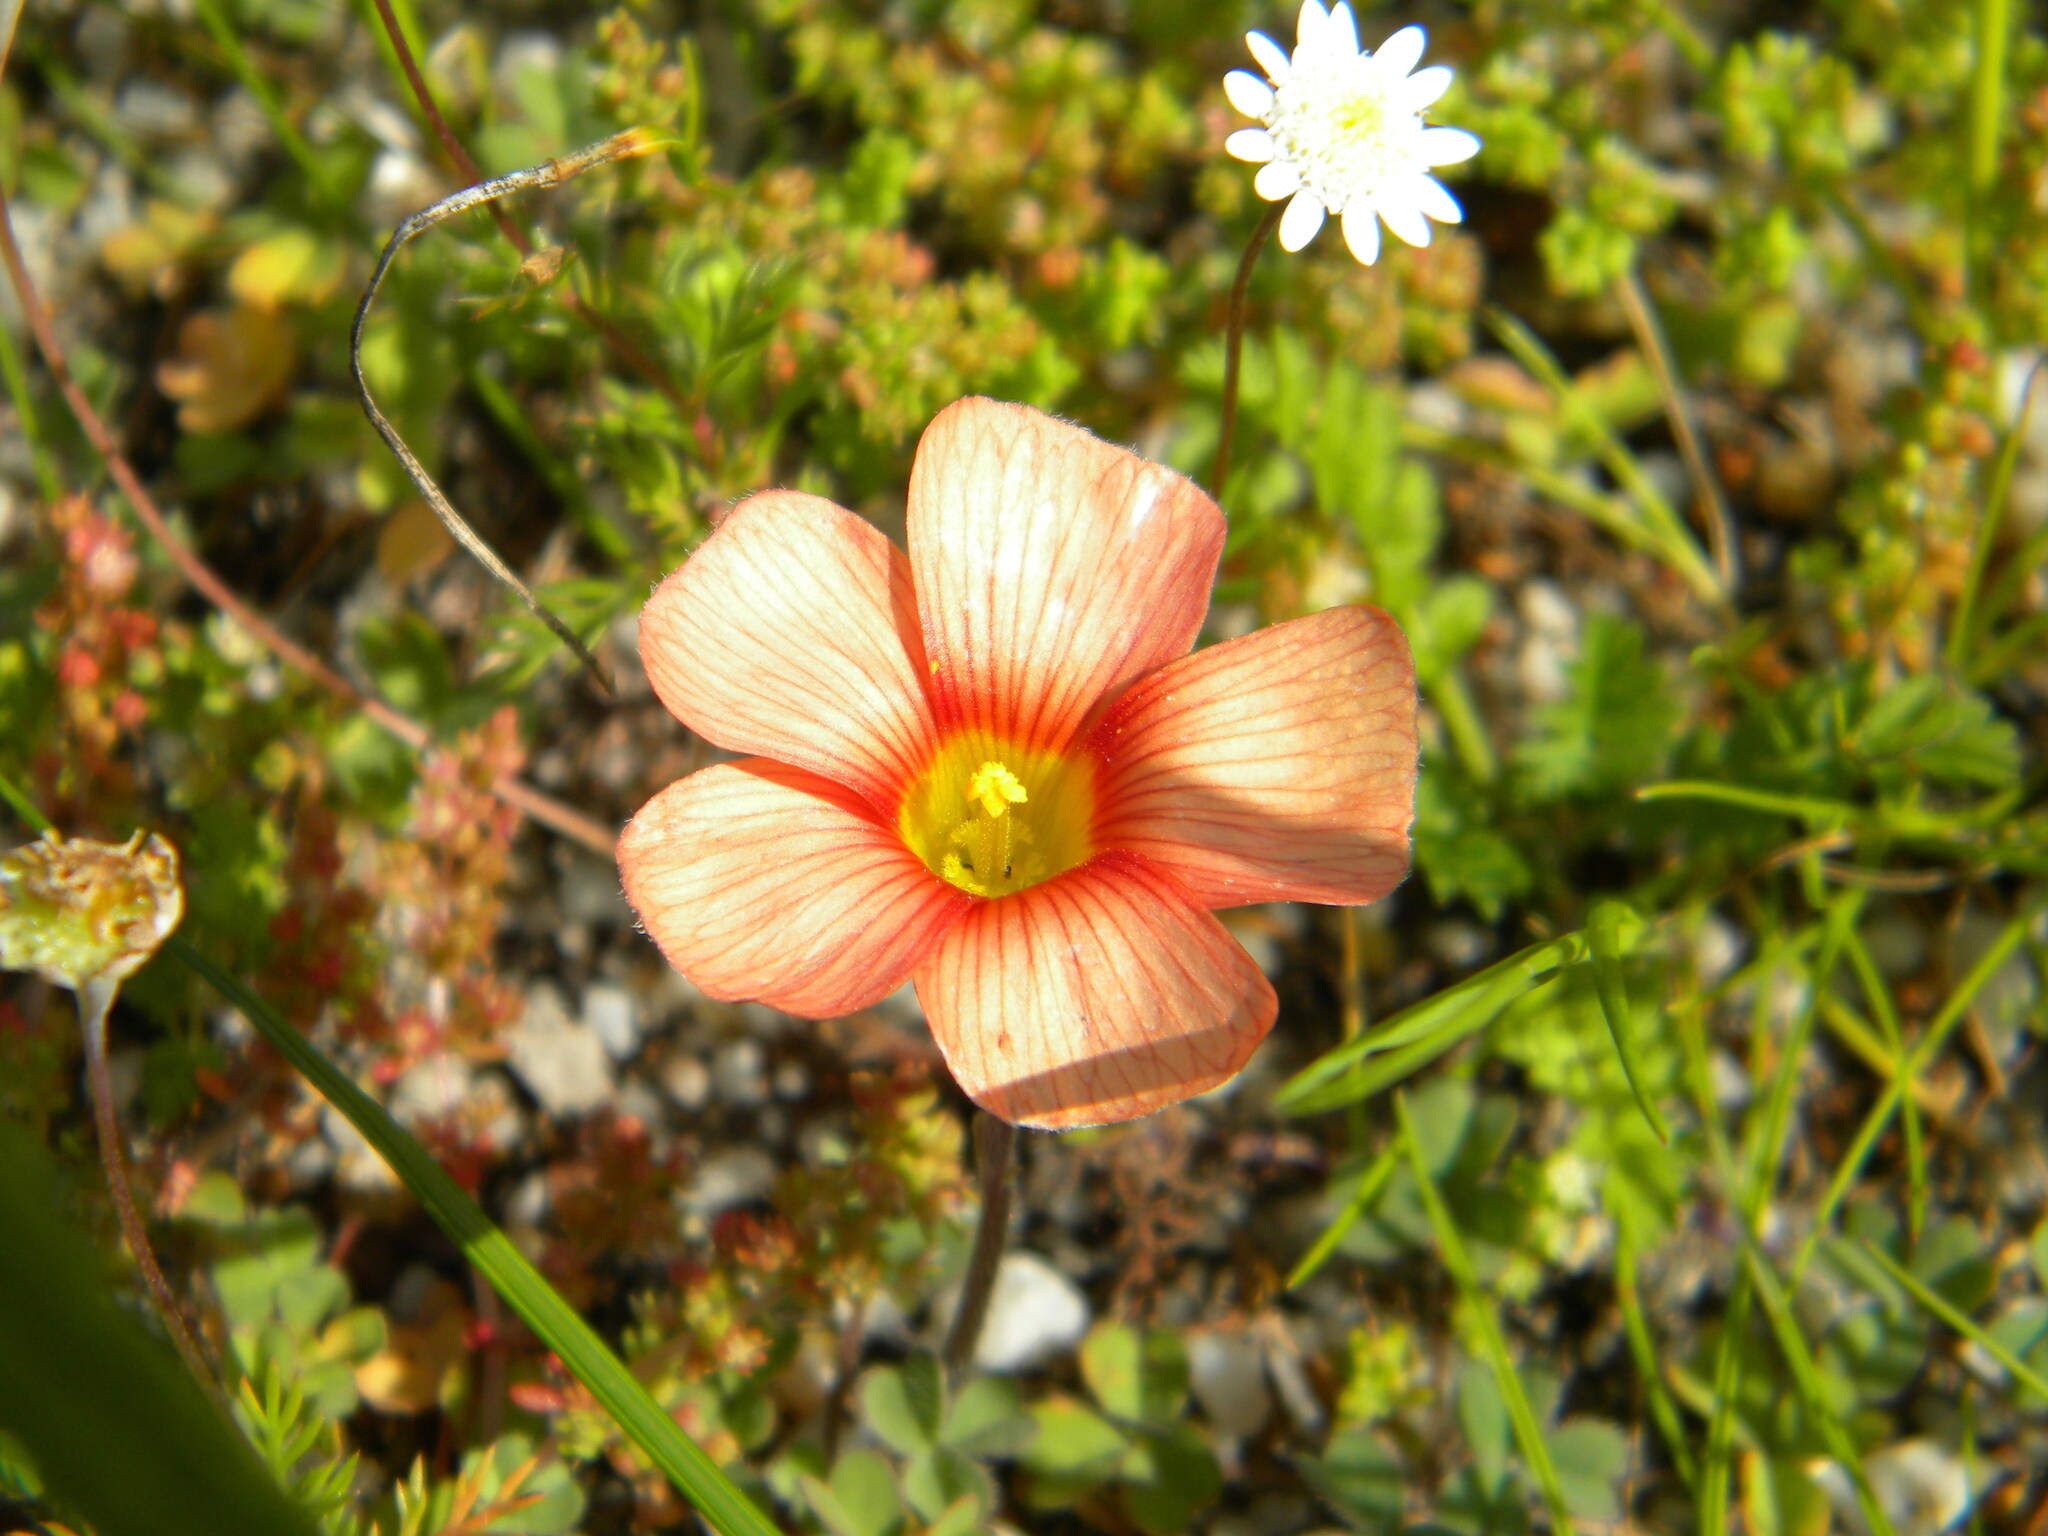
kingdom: Plantae
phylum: Tracheophyta
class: Magnoliopsida
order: Oxalidales
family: Oxalidaceae
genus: Oxalis
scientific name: Oxalis obtusa
